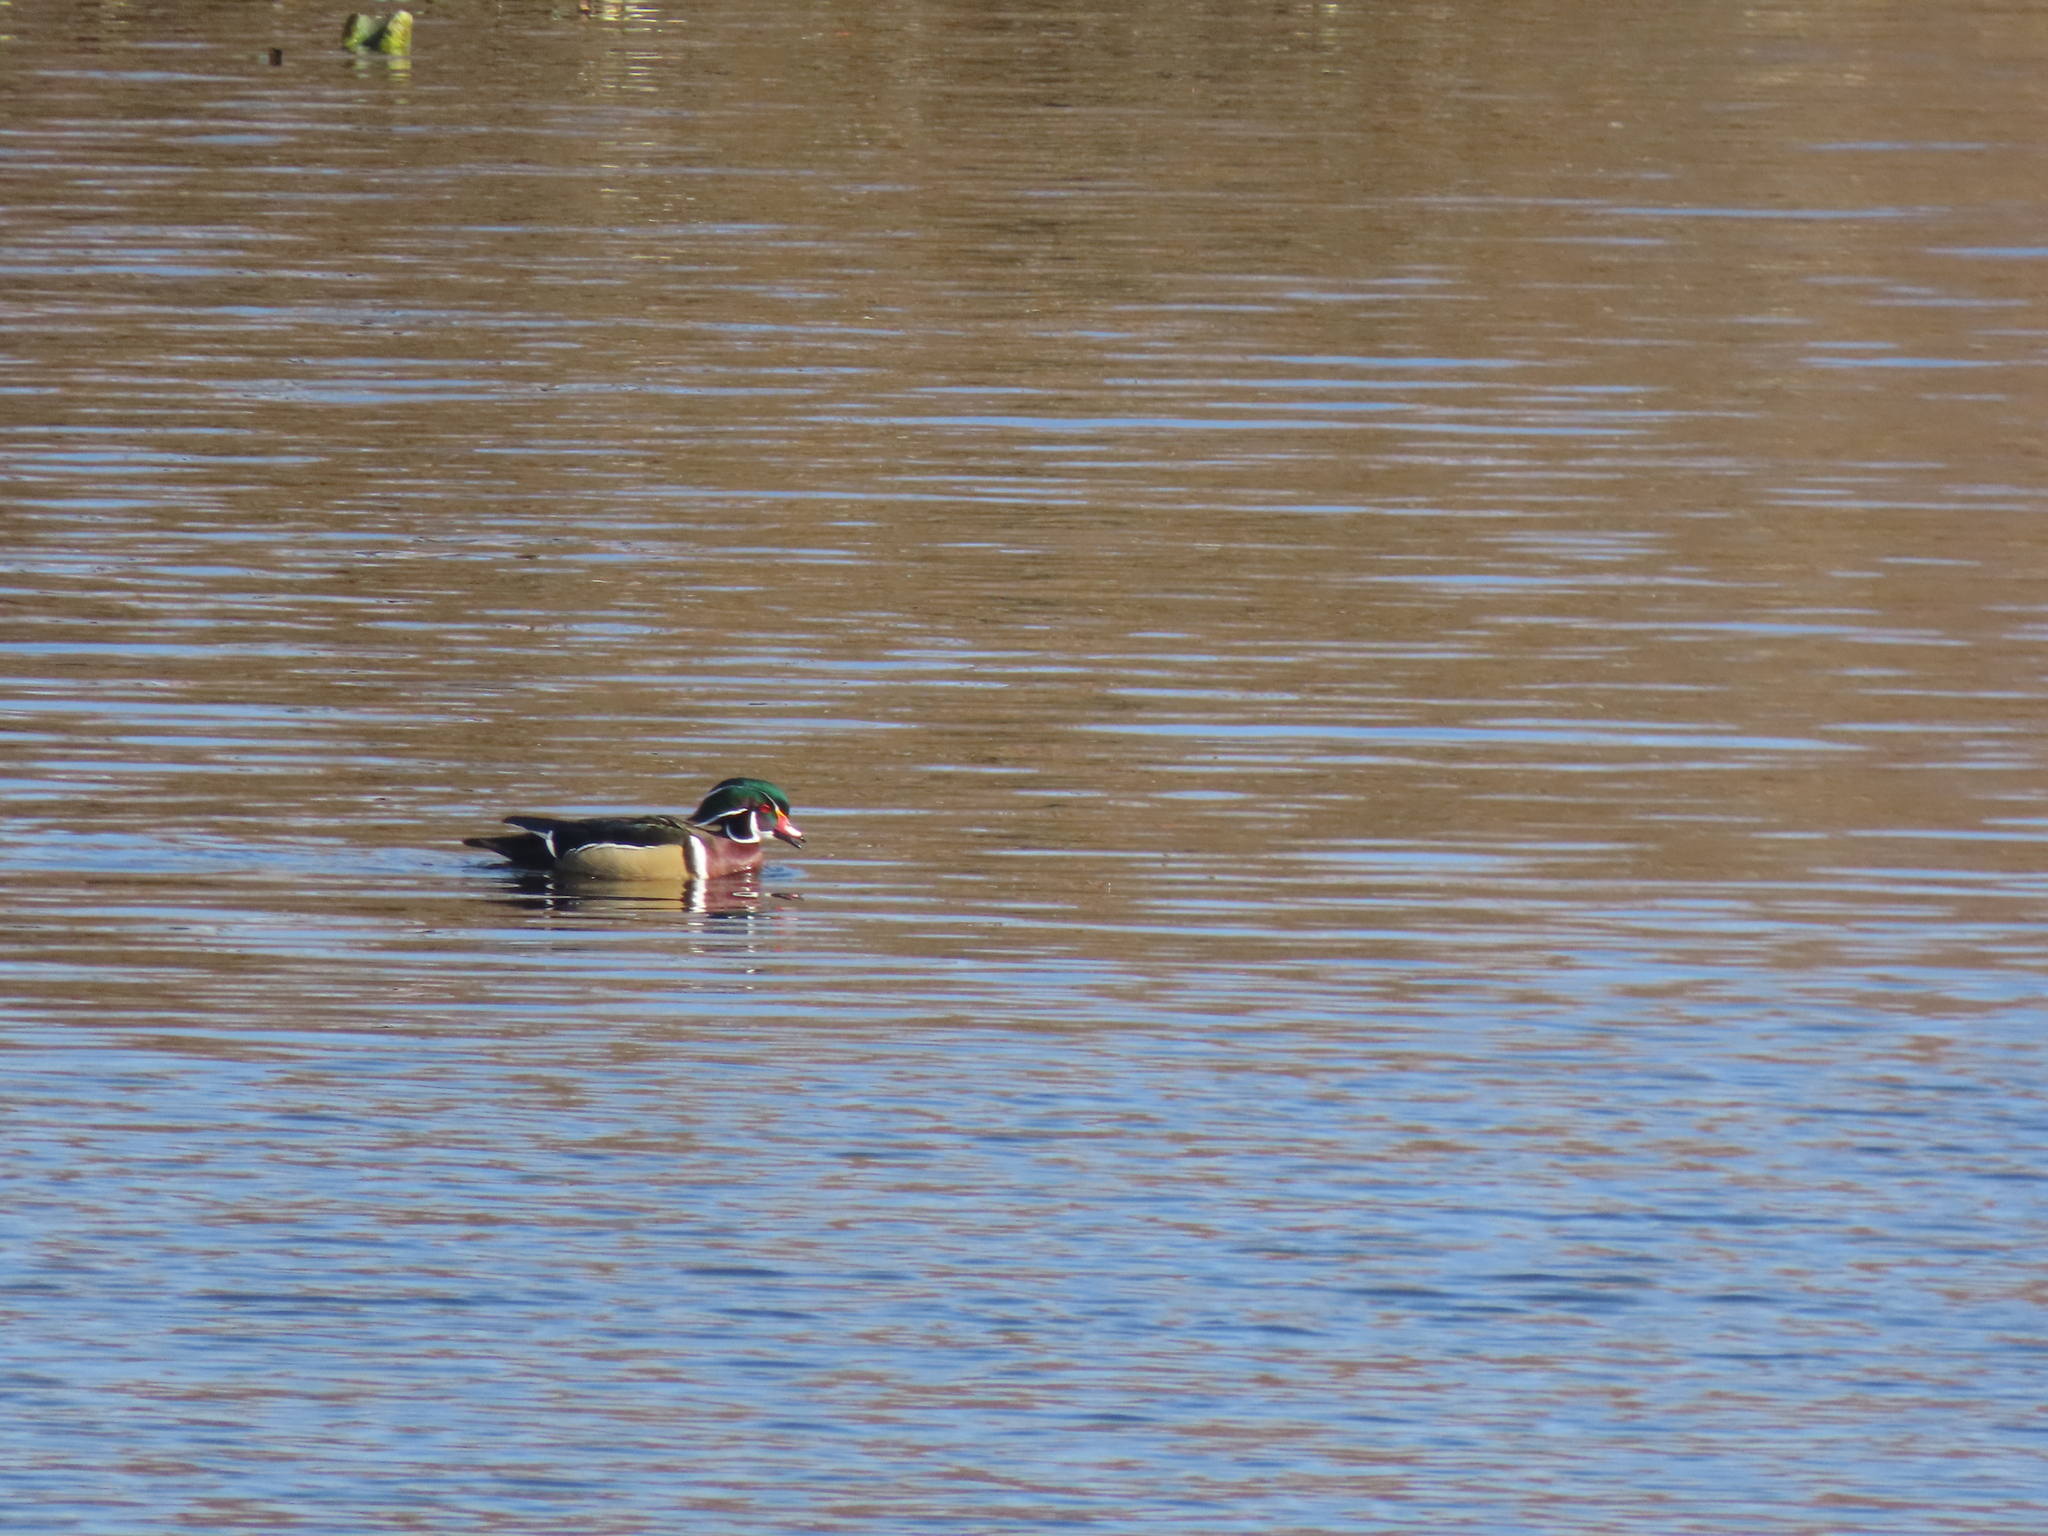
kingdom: Animalia
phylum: Chordata
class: Aves
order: Anseriformes
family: Anatidae
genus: Aix
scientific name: Aix sponsa
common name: Wood duck
